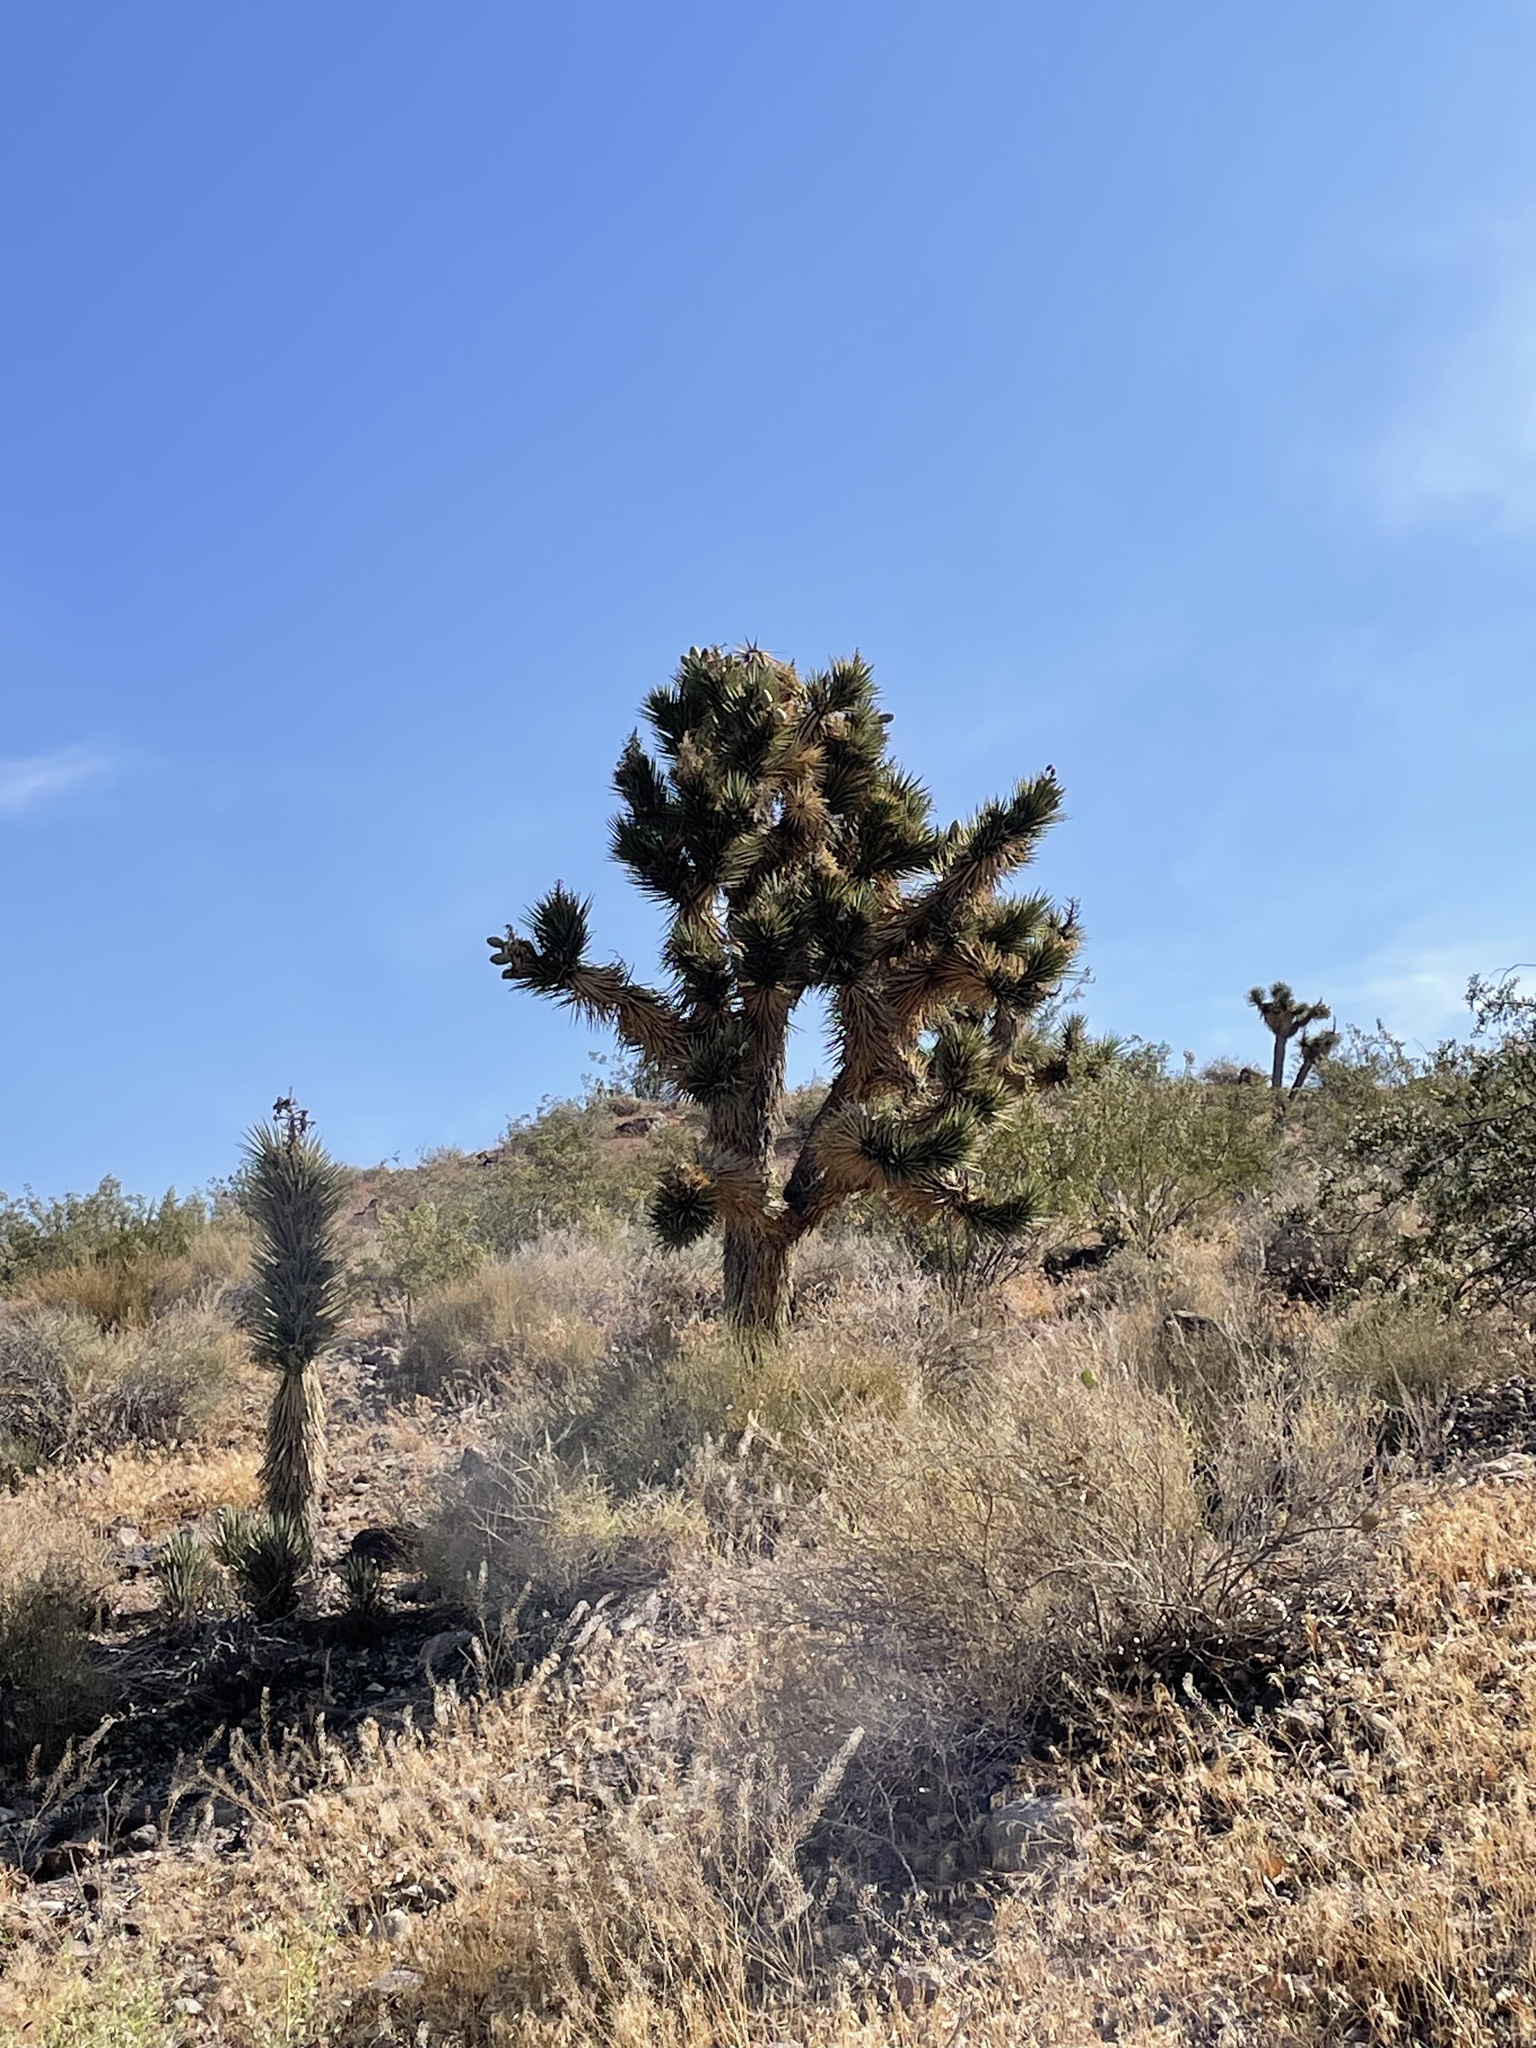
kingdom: Plantae
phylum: Tracheophyta
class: Liliopsida
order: Asparagales
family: Asparagaceae
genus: Yucca
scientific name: Yucca brevifolia
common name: Joshua tree
